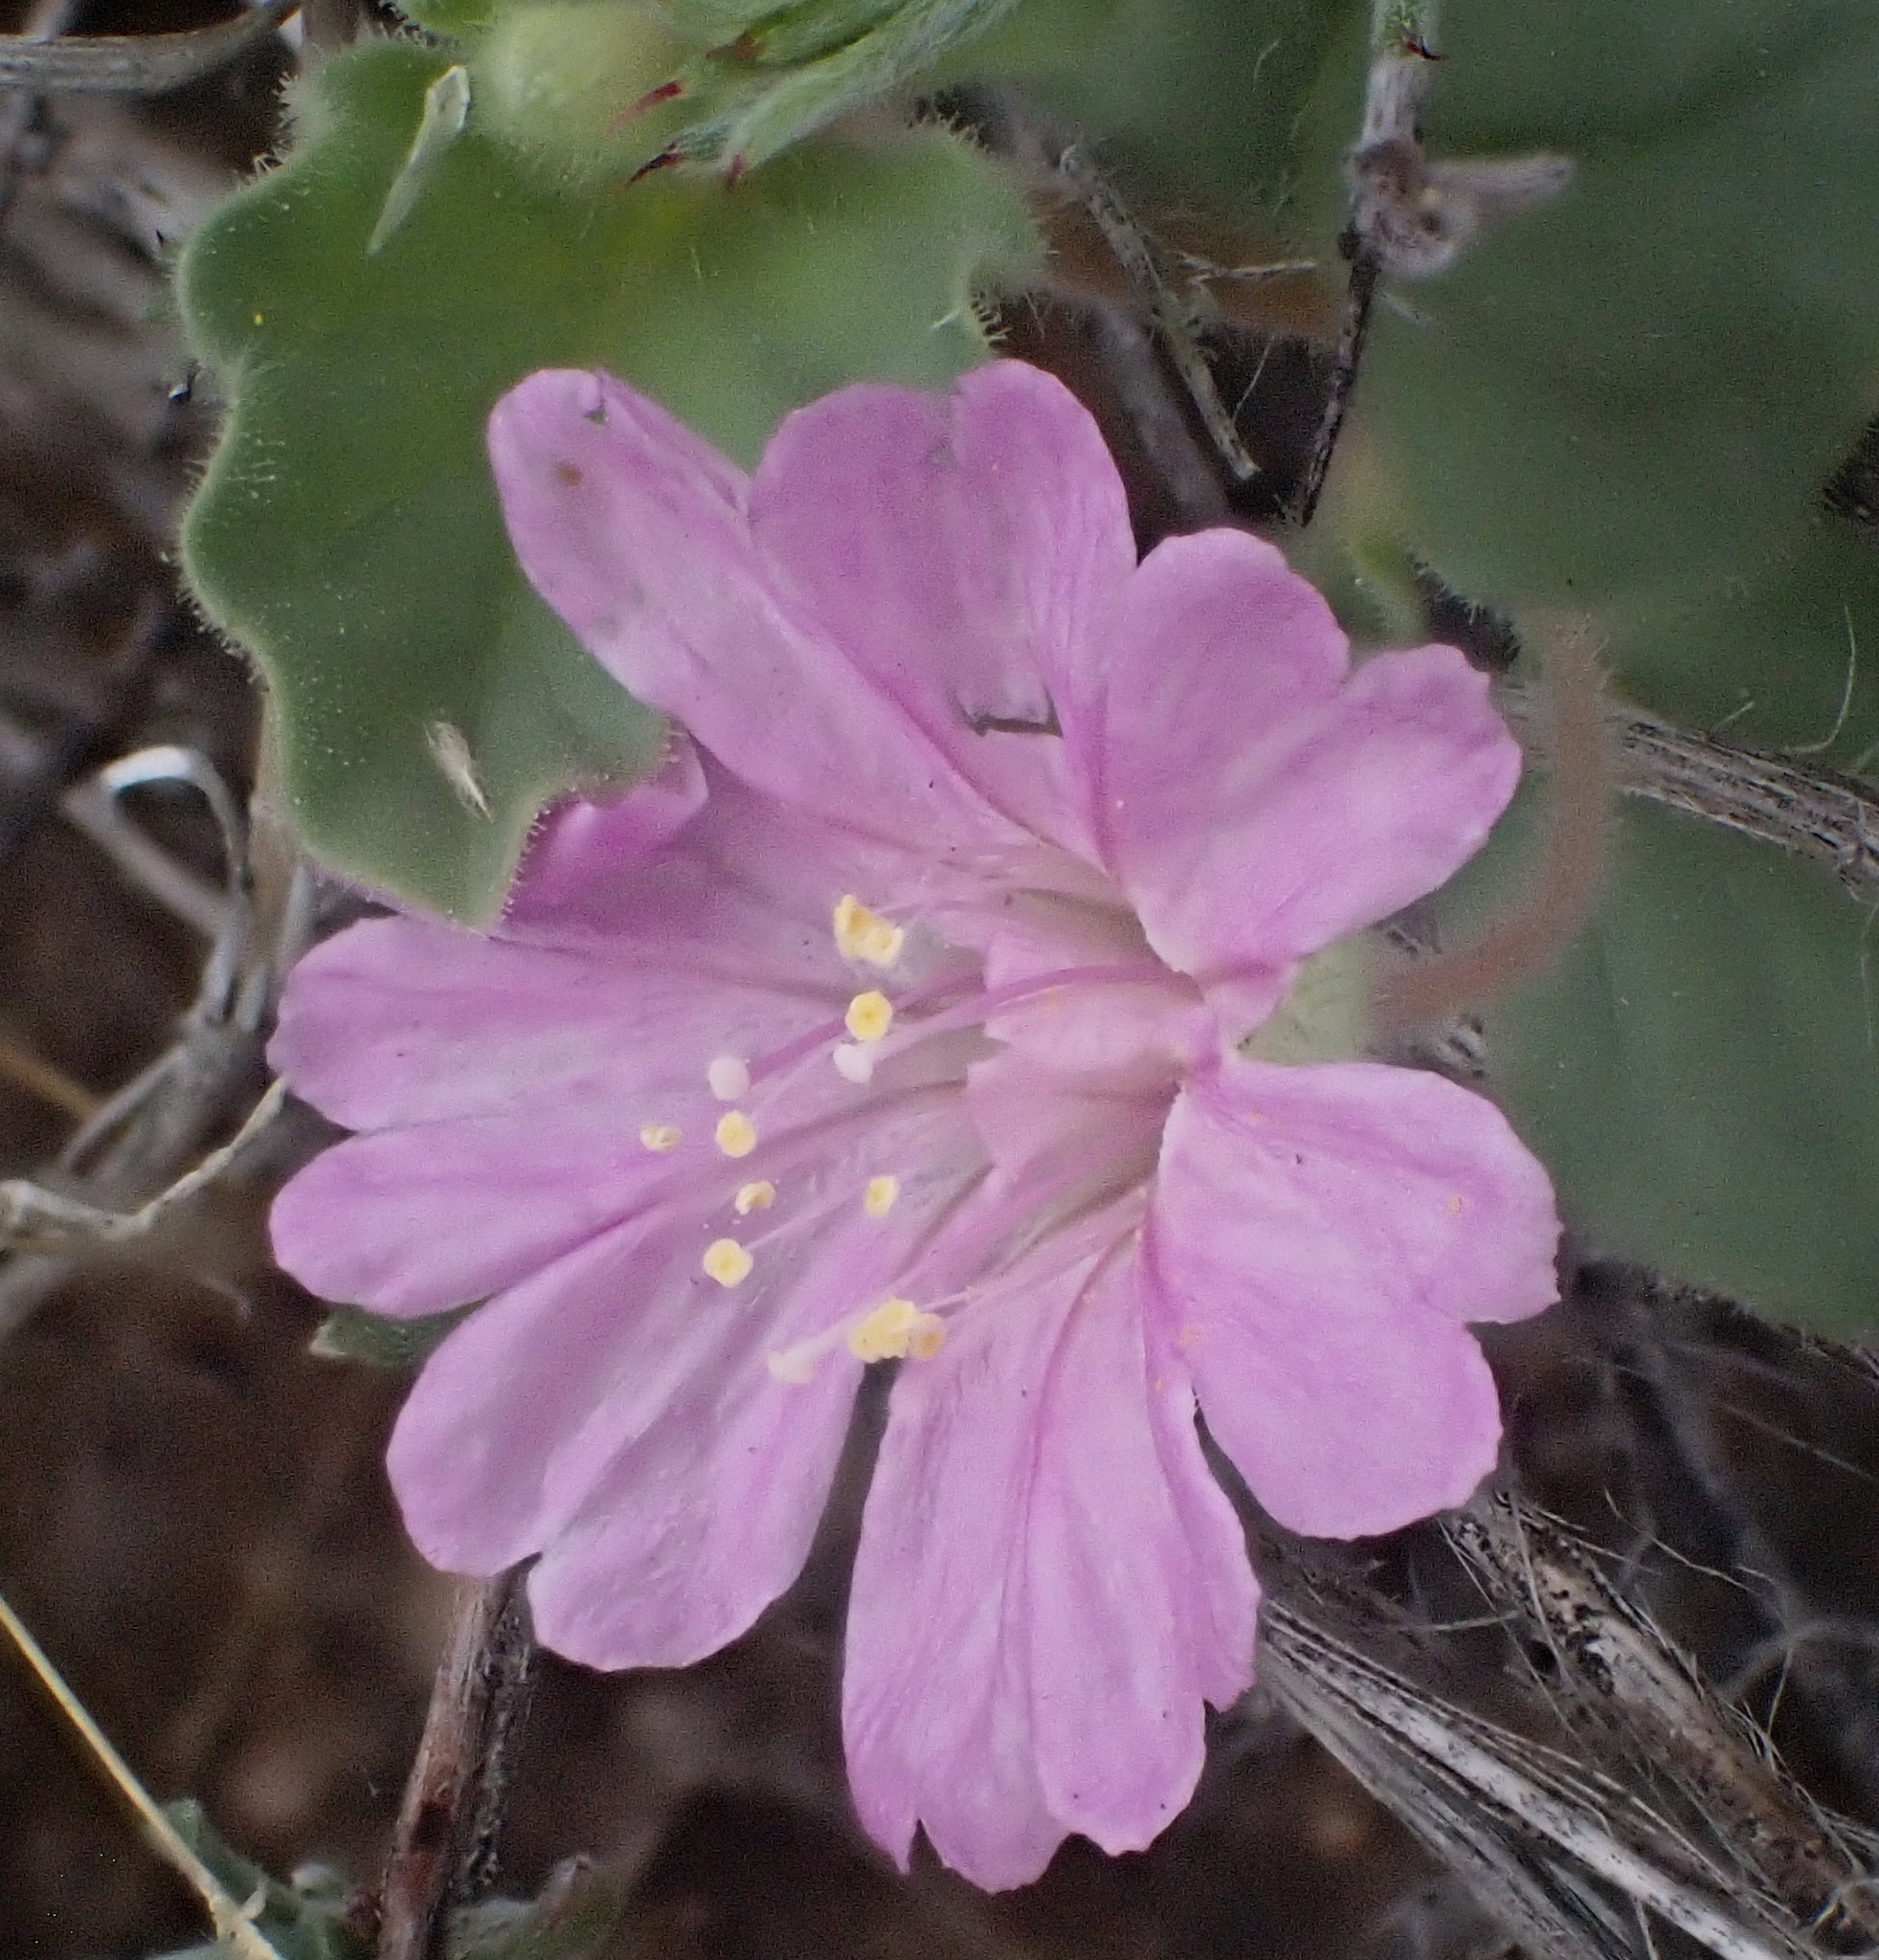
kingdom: Plantae
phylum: Tracheophyta
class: Magnoliopsida
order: Caryophyllales
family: Nyctaginaceae
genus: Allionia
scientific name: Allionia incarnata
